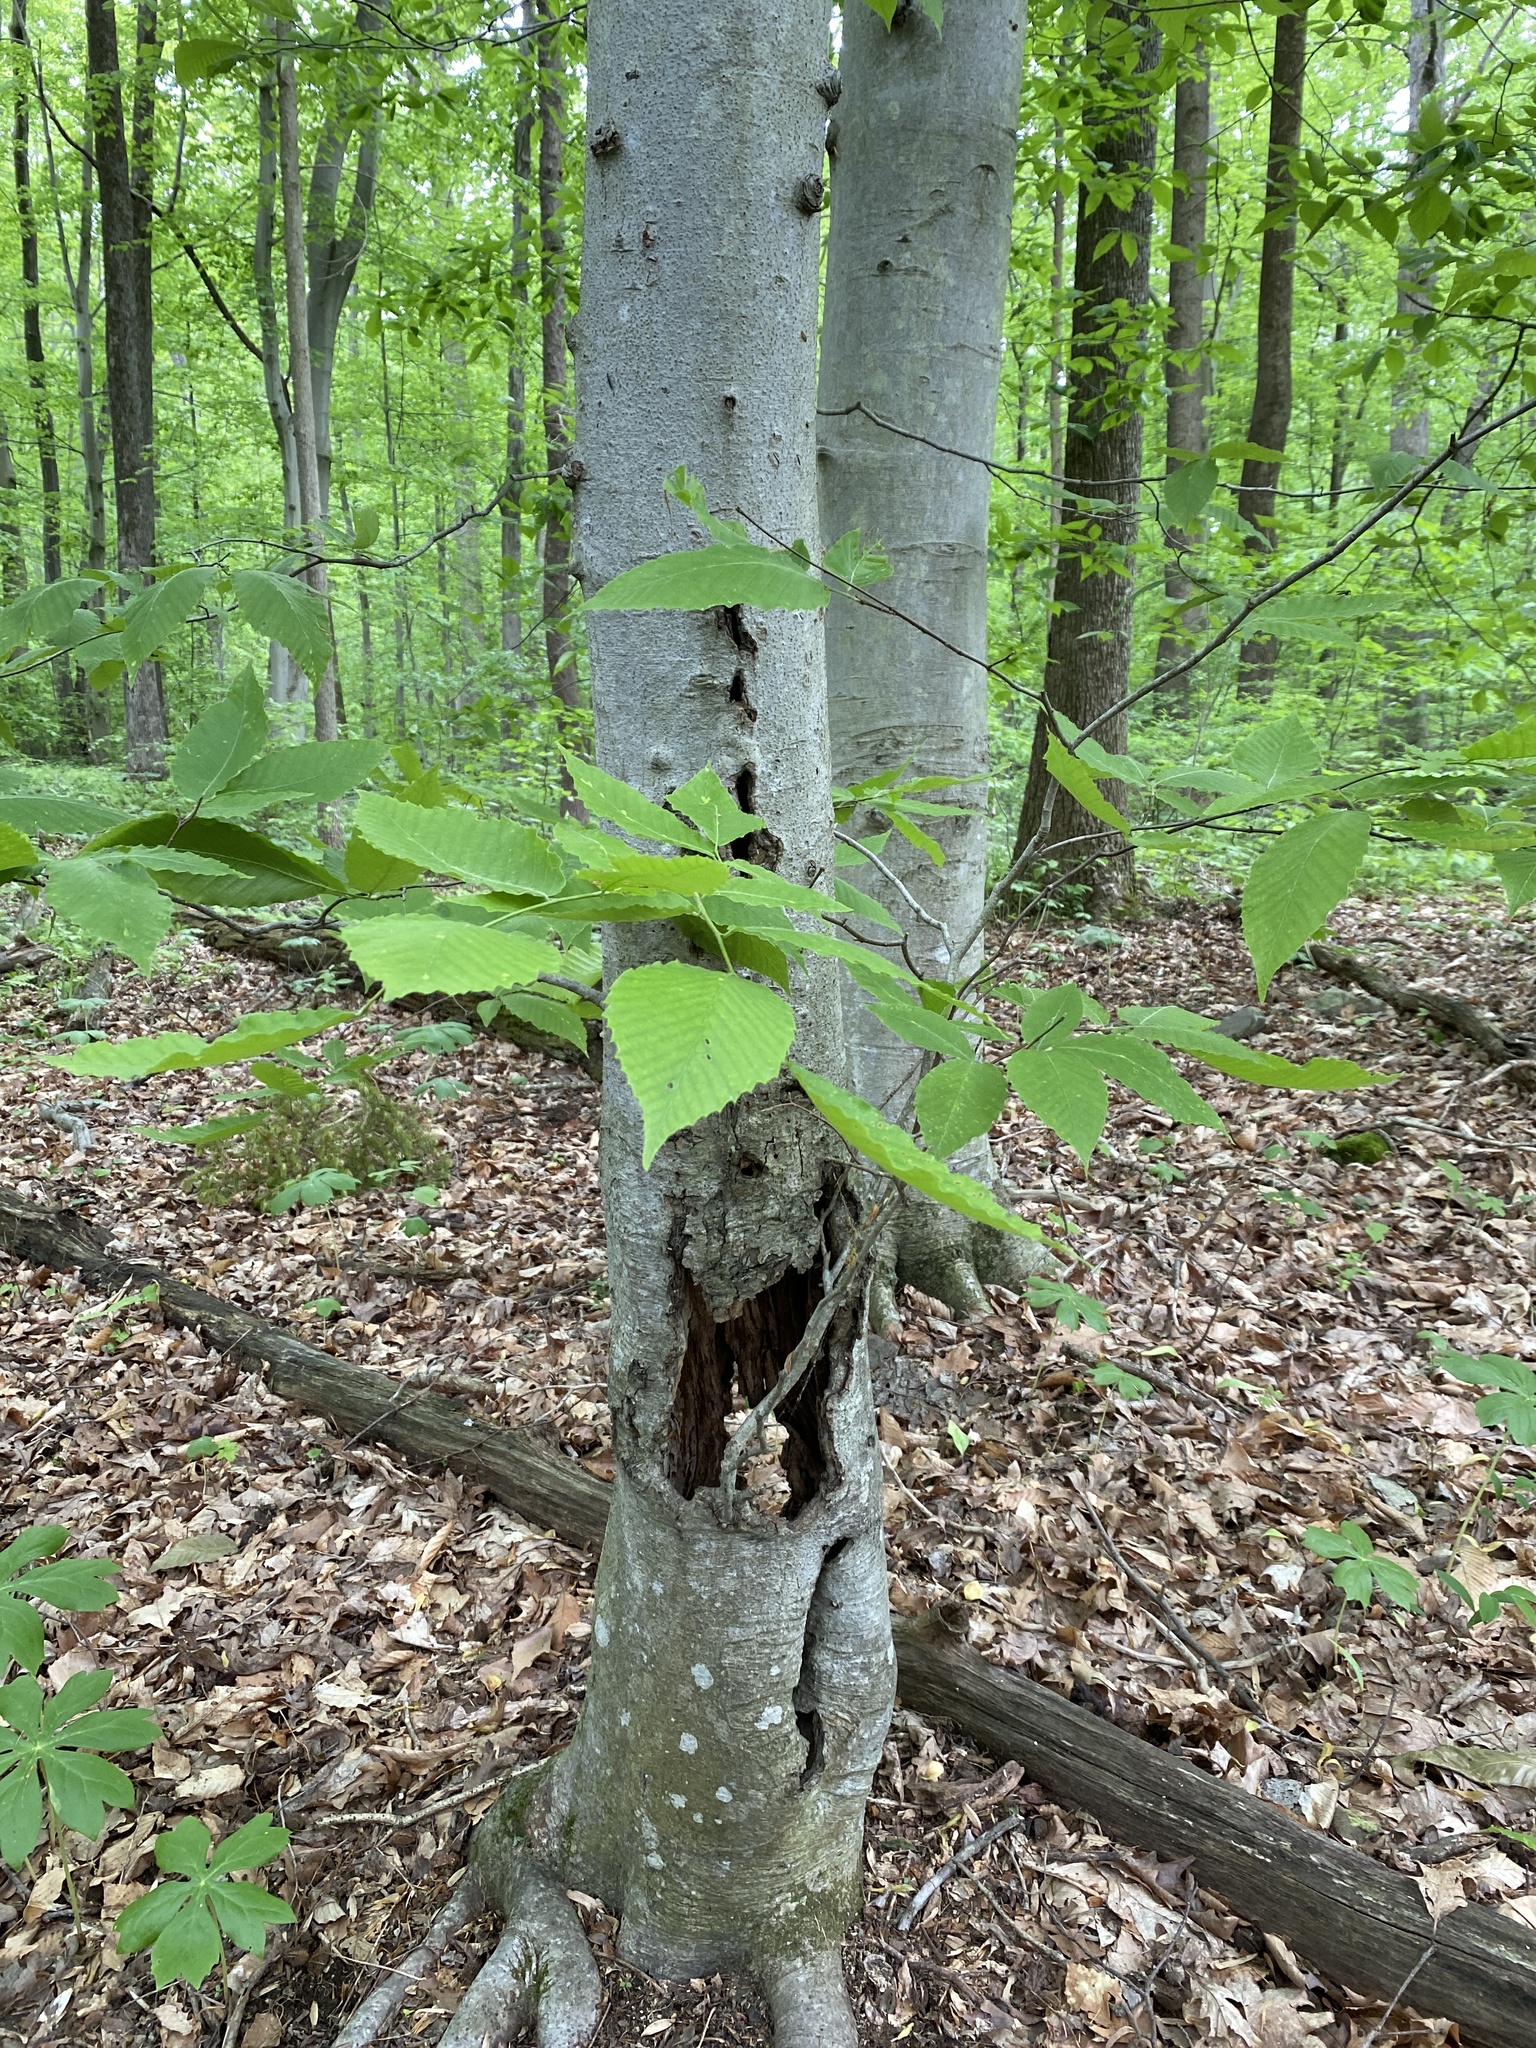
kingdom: Plantae
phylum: Tracheophyta
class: Magnoliopsida
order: Fagales
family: Fagaceae
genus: Fagus
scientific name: Fagus grandifolia
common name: American beech
